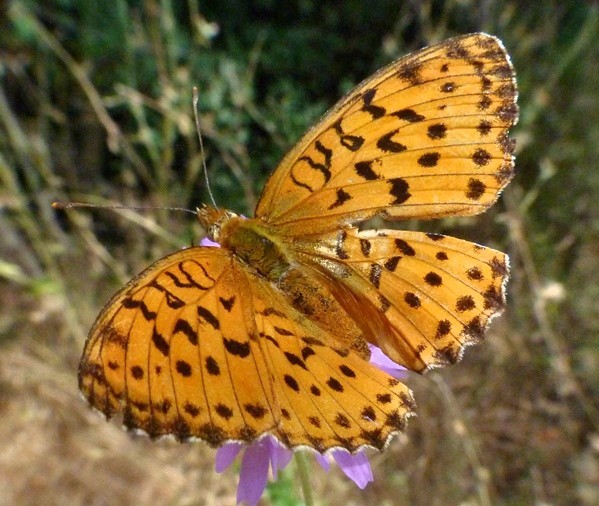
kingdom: Animalia
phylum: Arthropoda
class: Insecta
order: Lepidoptera
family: Nymphalidae
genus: Brenthis
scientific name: Brenthis daphne
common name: Marbled fritillary
